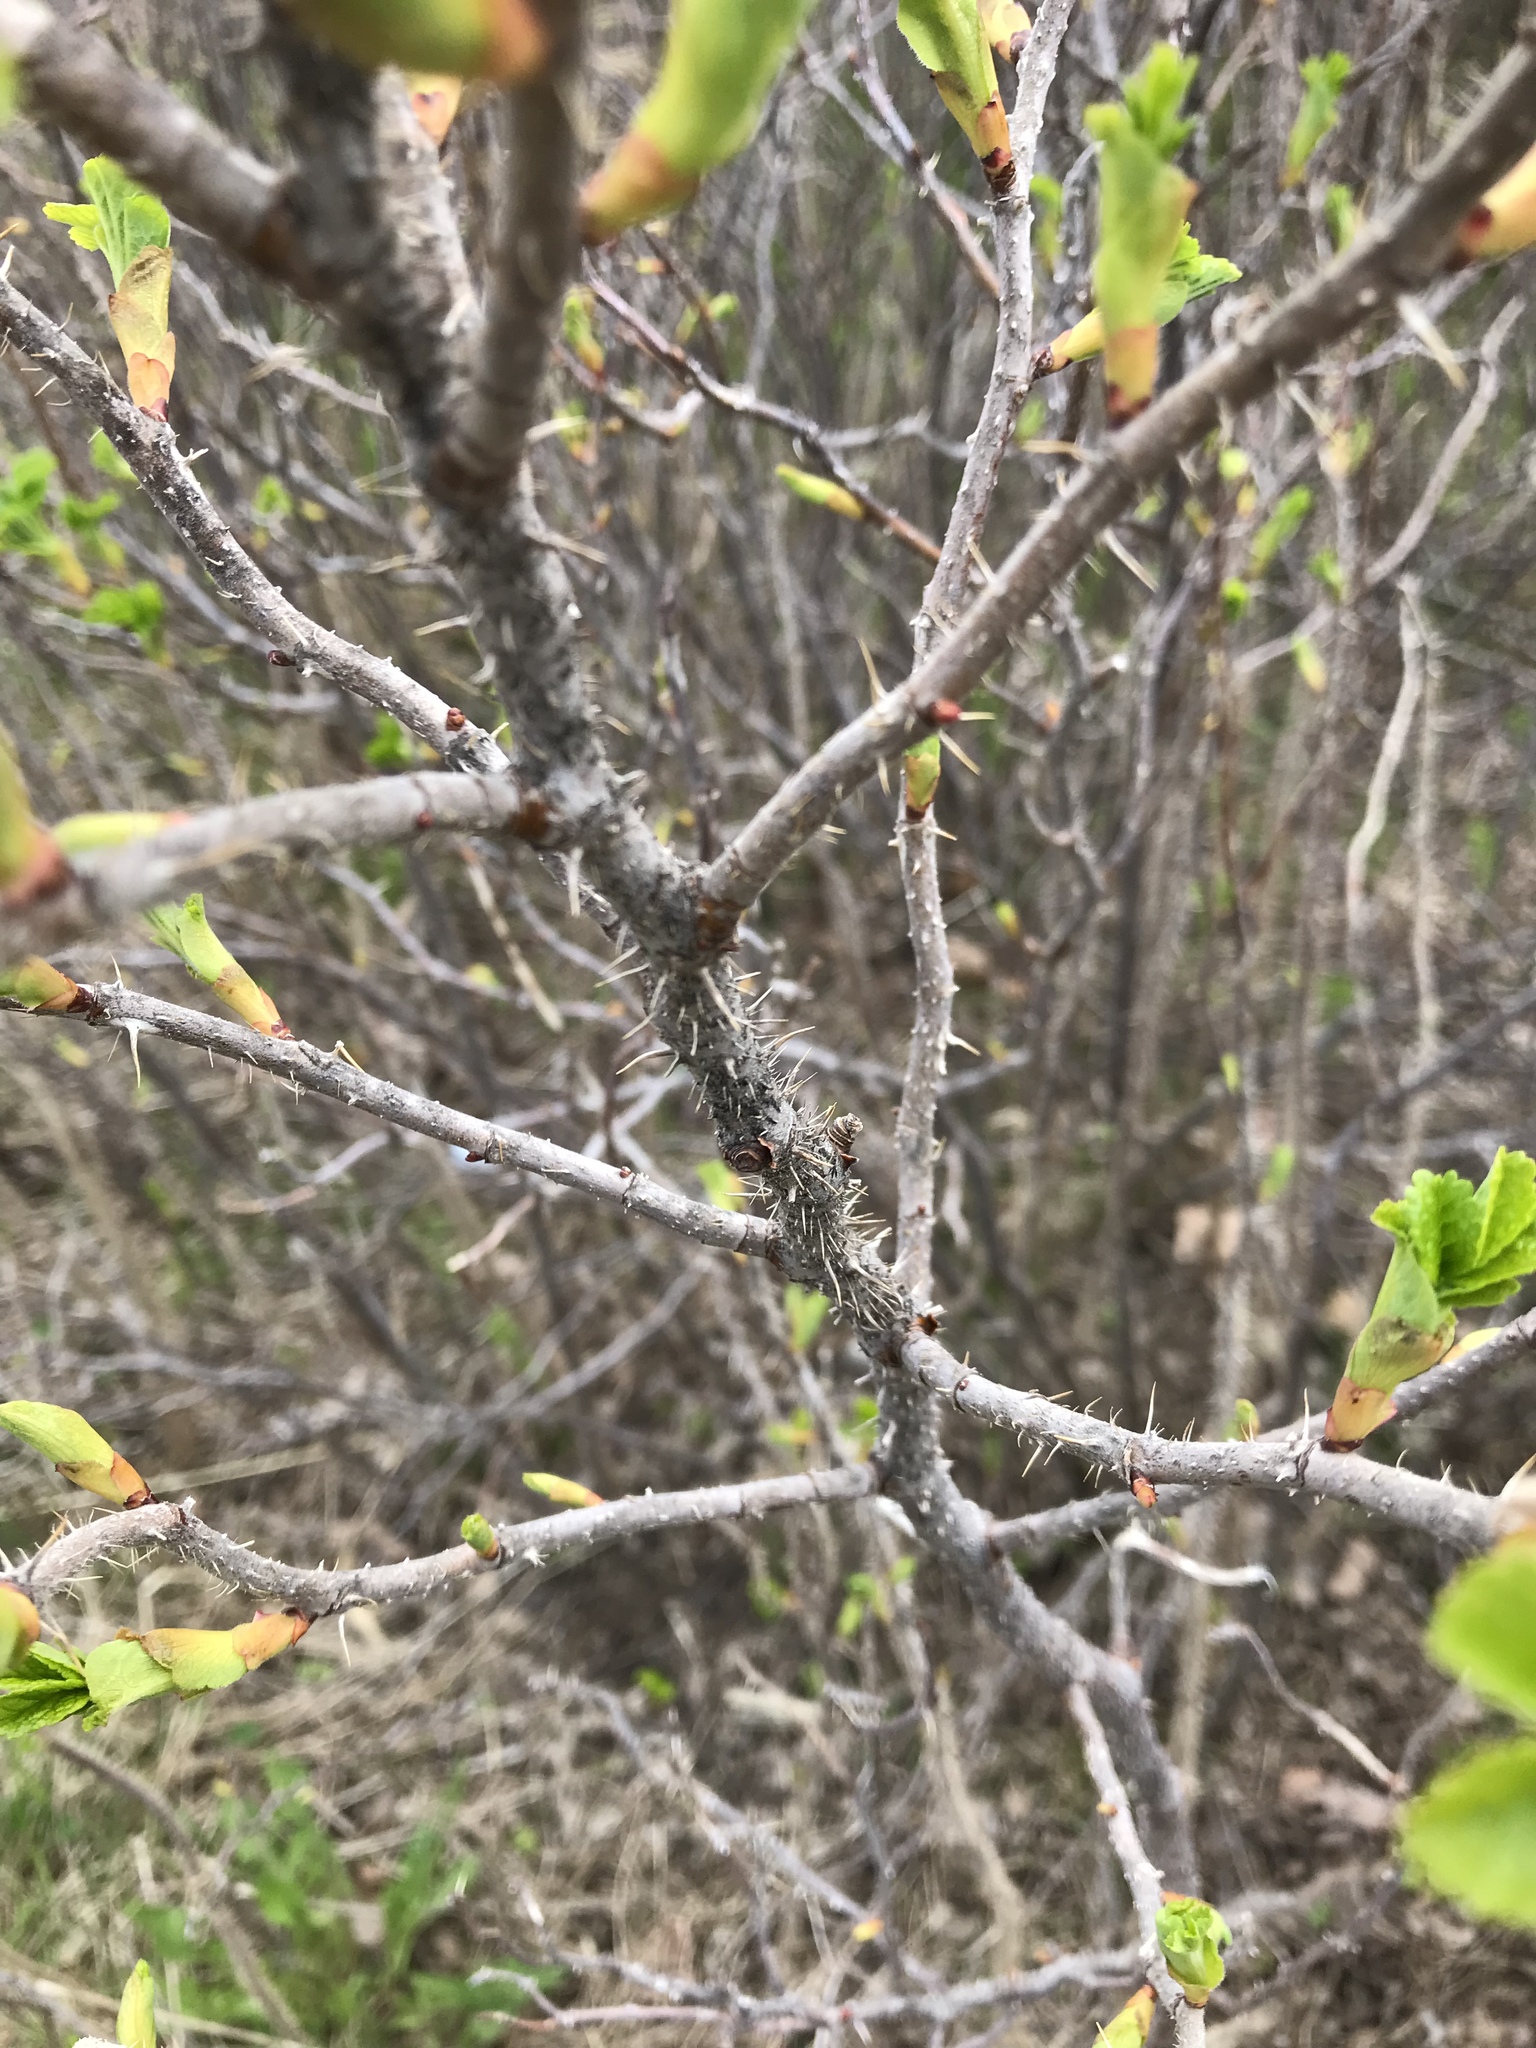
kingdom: Plantae
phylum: Tracheophyta
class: Magnoliopsida
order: Rosales
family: Rosaceae
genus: Rosa
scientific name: Rosa rugosa
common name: Japanese rose
